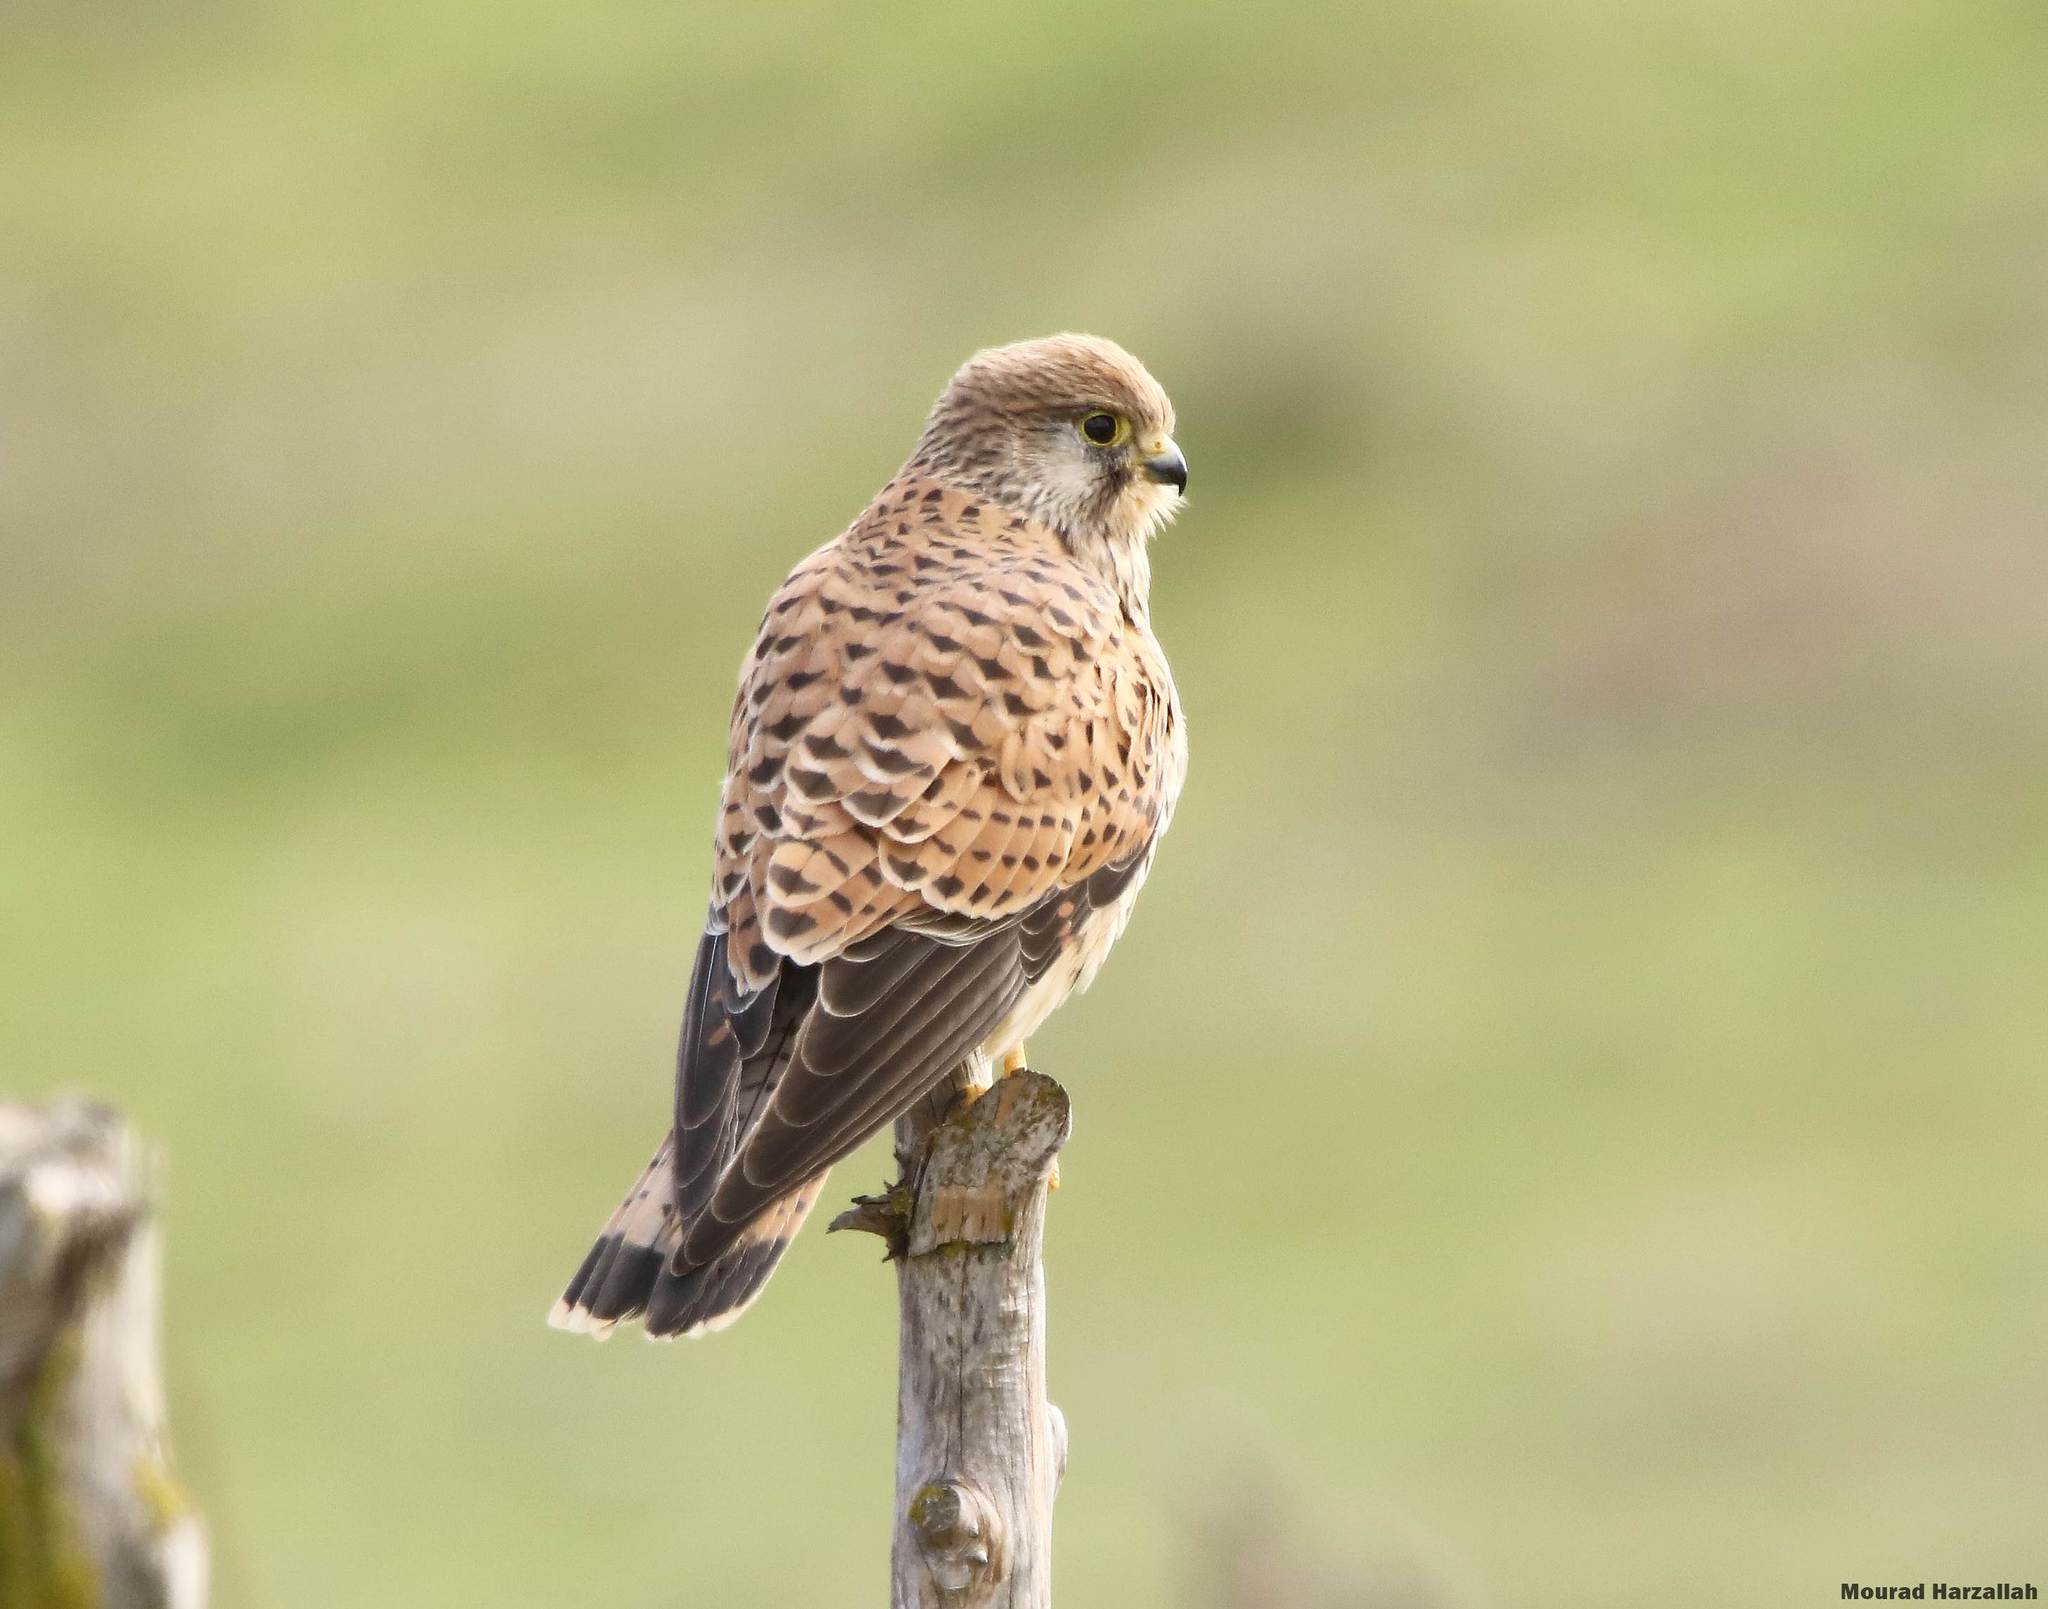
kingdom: Animalia
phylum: Chordata
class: Aves
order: Falconiformes
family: Falconidae
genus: Falco
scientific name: Falco tinnunculus
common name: Common kestrel
